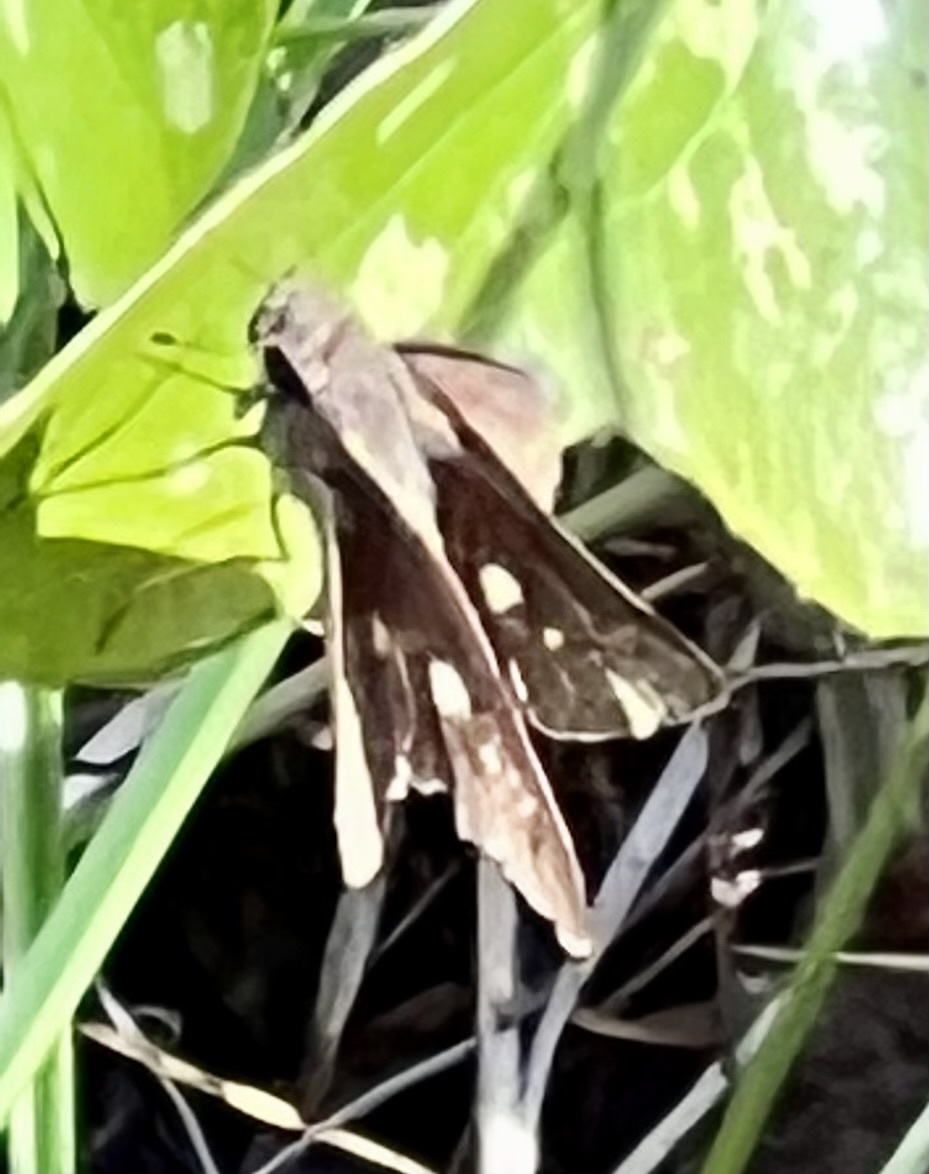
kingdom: Animalia
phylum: Arthropoda
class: Insecta
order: Lepidoptera
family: Hesperiidae
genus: Panoquina
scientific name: Panoquina ocola
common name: Ocola skipper
